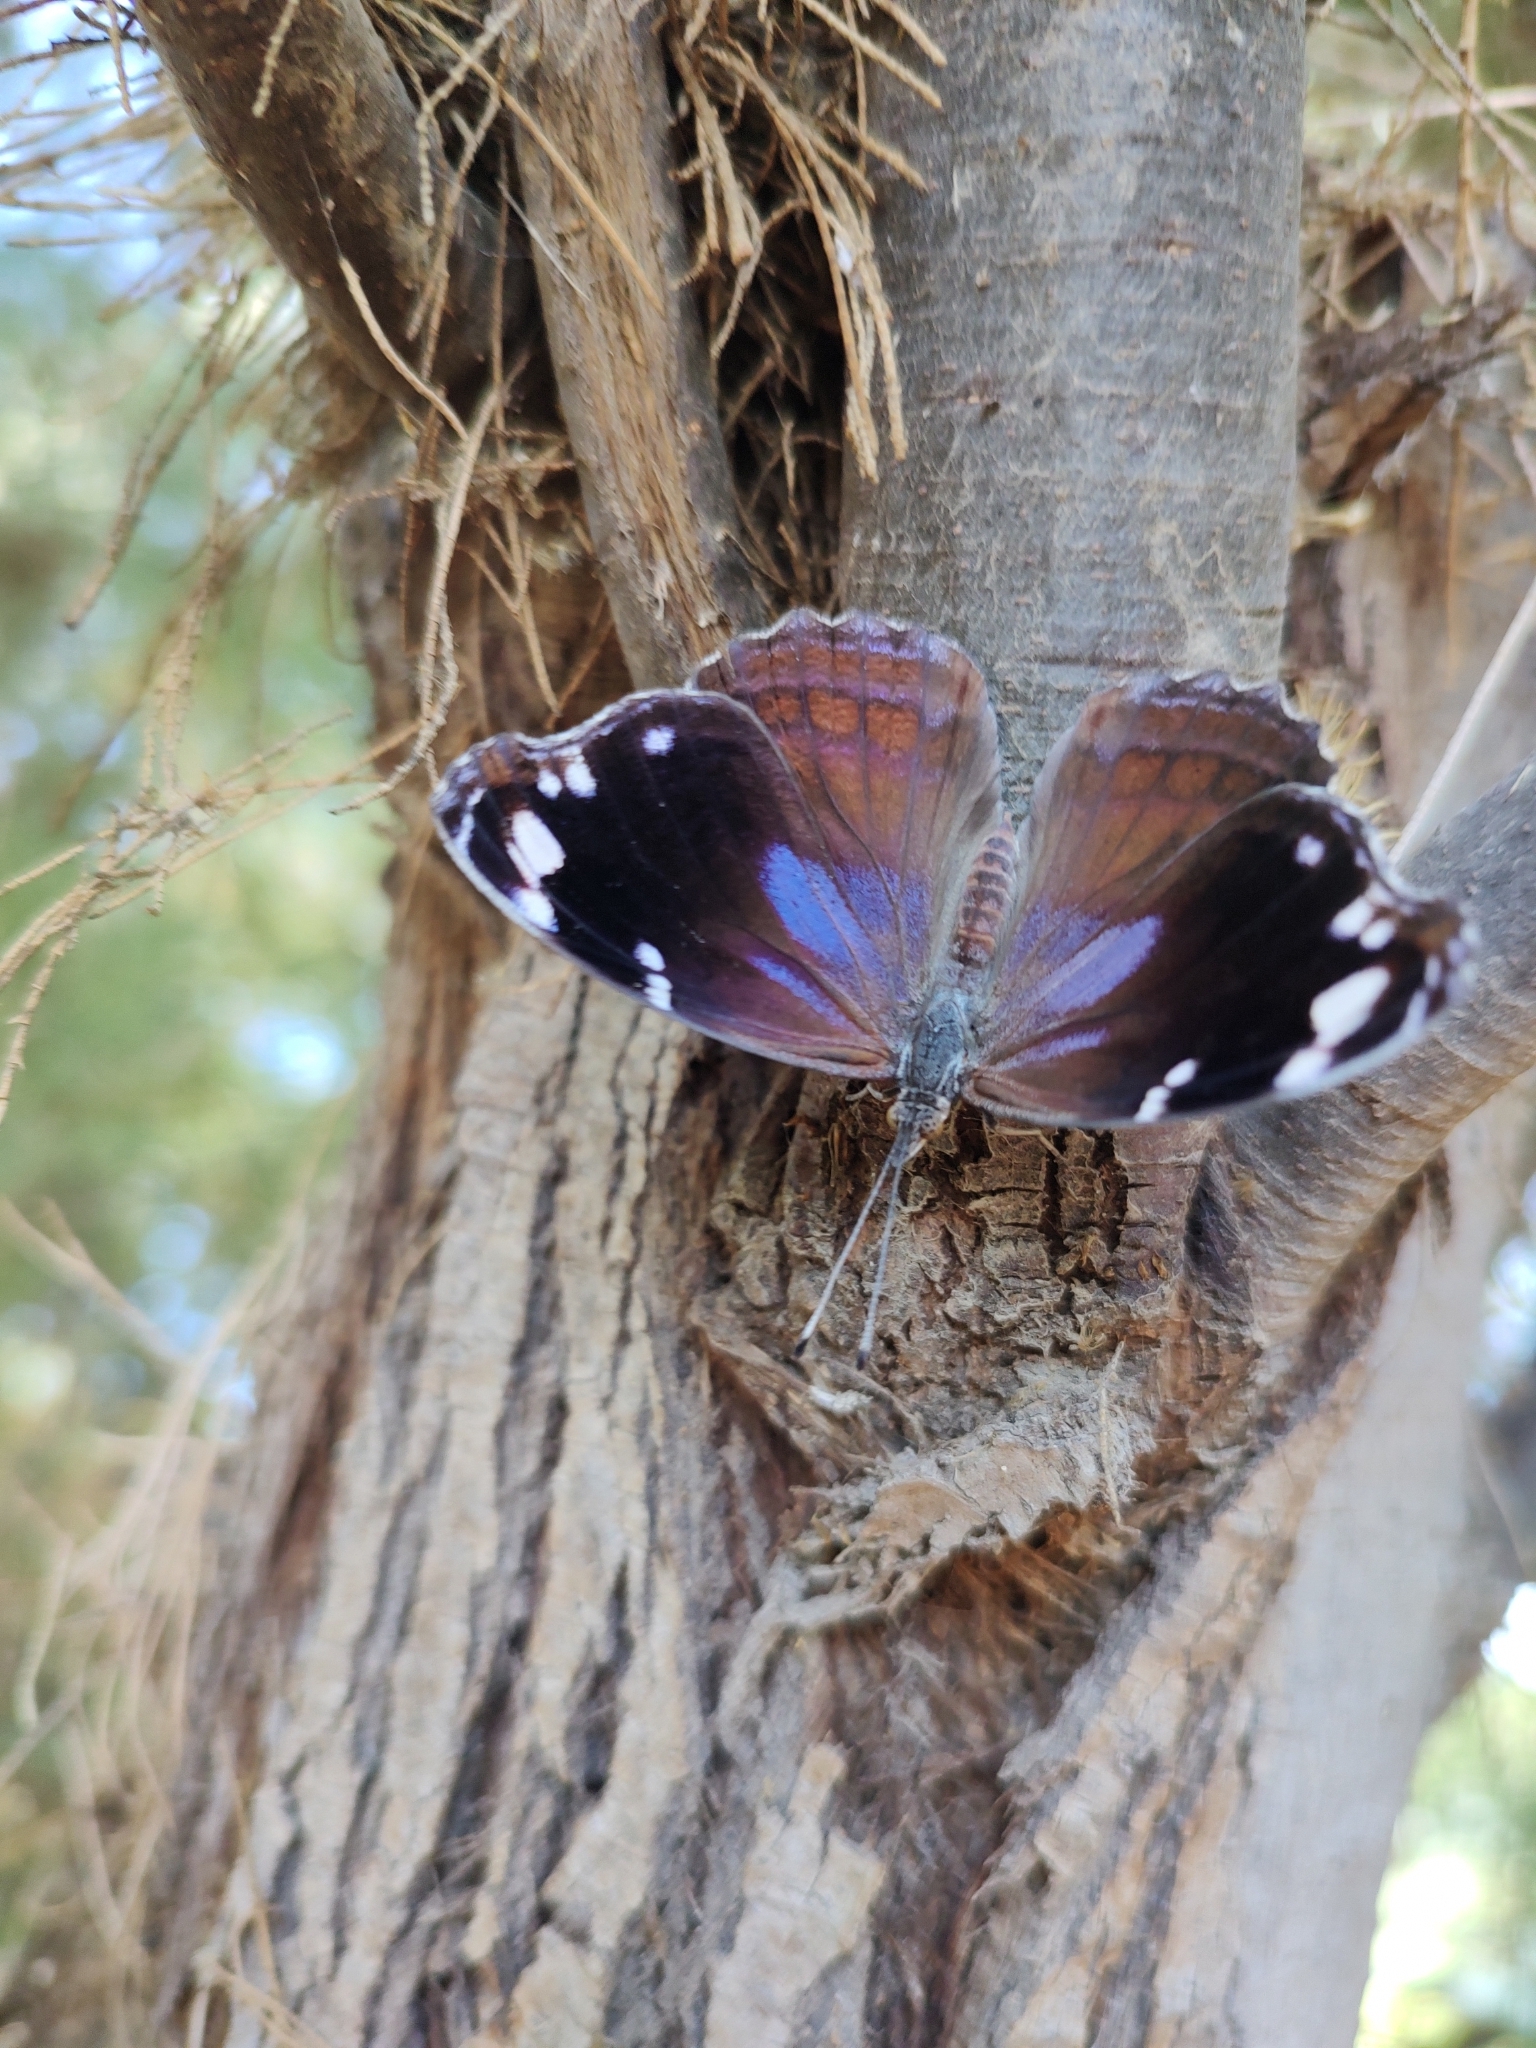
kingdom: Animalia
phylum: Arthropoda
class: Insecta
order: Lepidoptera
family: Nymphalidae
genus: Myscelia
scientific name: Myscelia cyananthe
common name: Blackened bluewing
